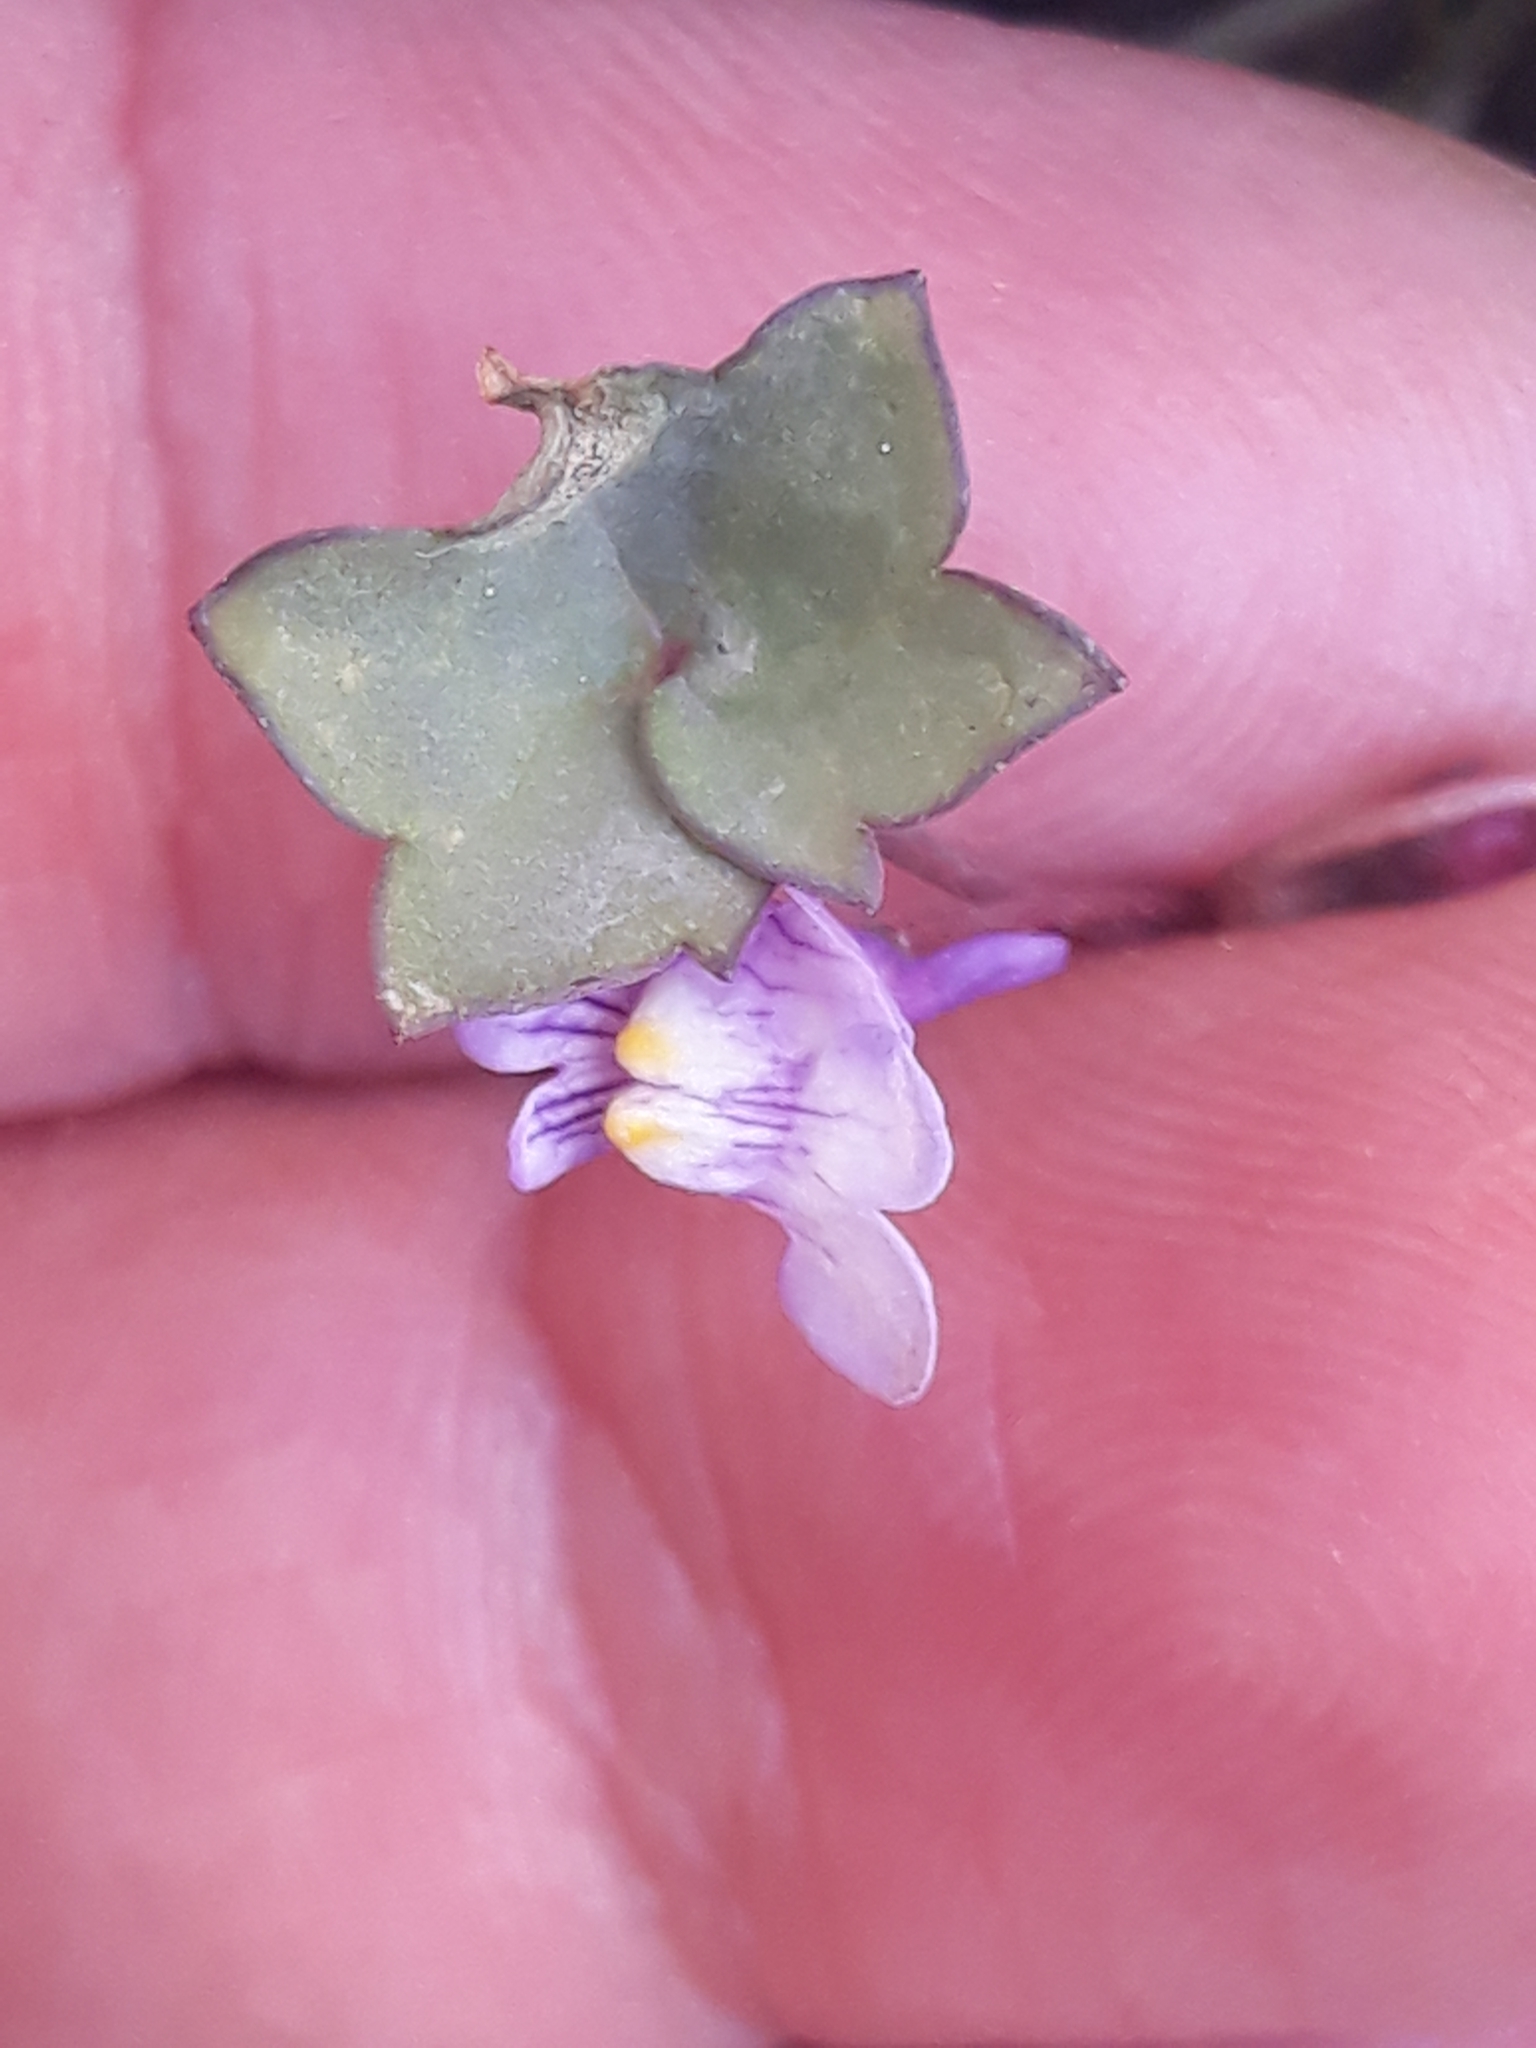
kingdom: Plantae
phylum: Tracheophyta
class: Magnoliopsida
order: Lamiales
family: Plantaginaceae
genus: Cymbalaria
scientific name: Cymbalaria muralis
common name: Ivy-leaved toadflax
